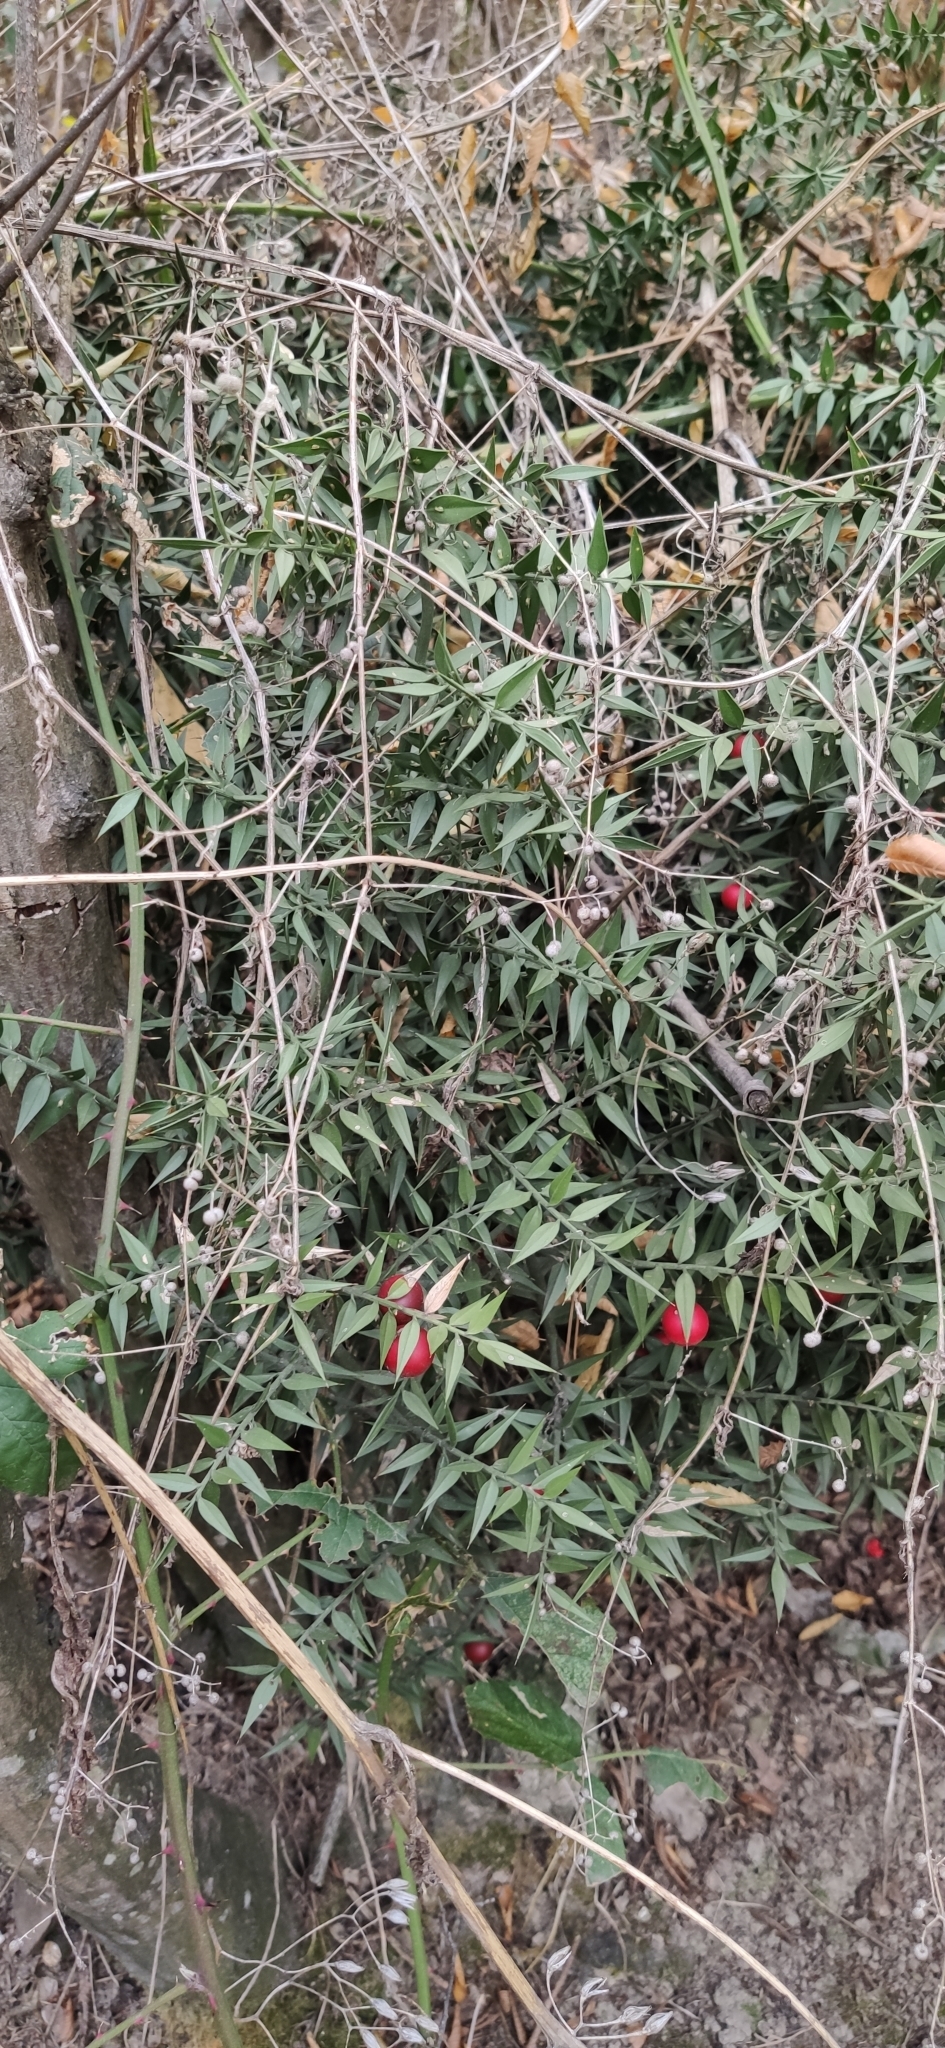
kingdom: Plantae
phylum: Tracheophyta
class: Liliopsida
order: Asparagales
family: Asparagaceae
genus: Ruscus
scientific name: Ruscus aculeatus
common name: Butcher's-broom
